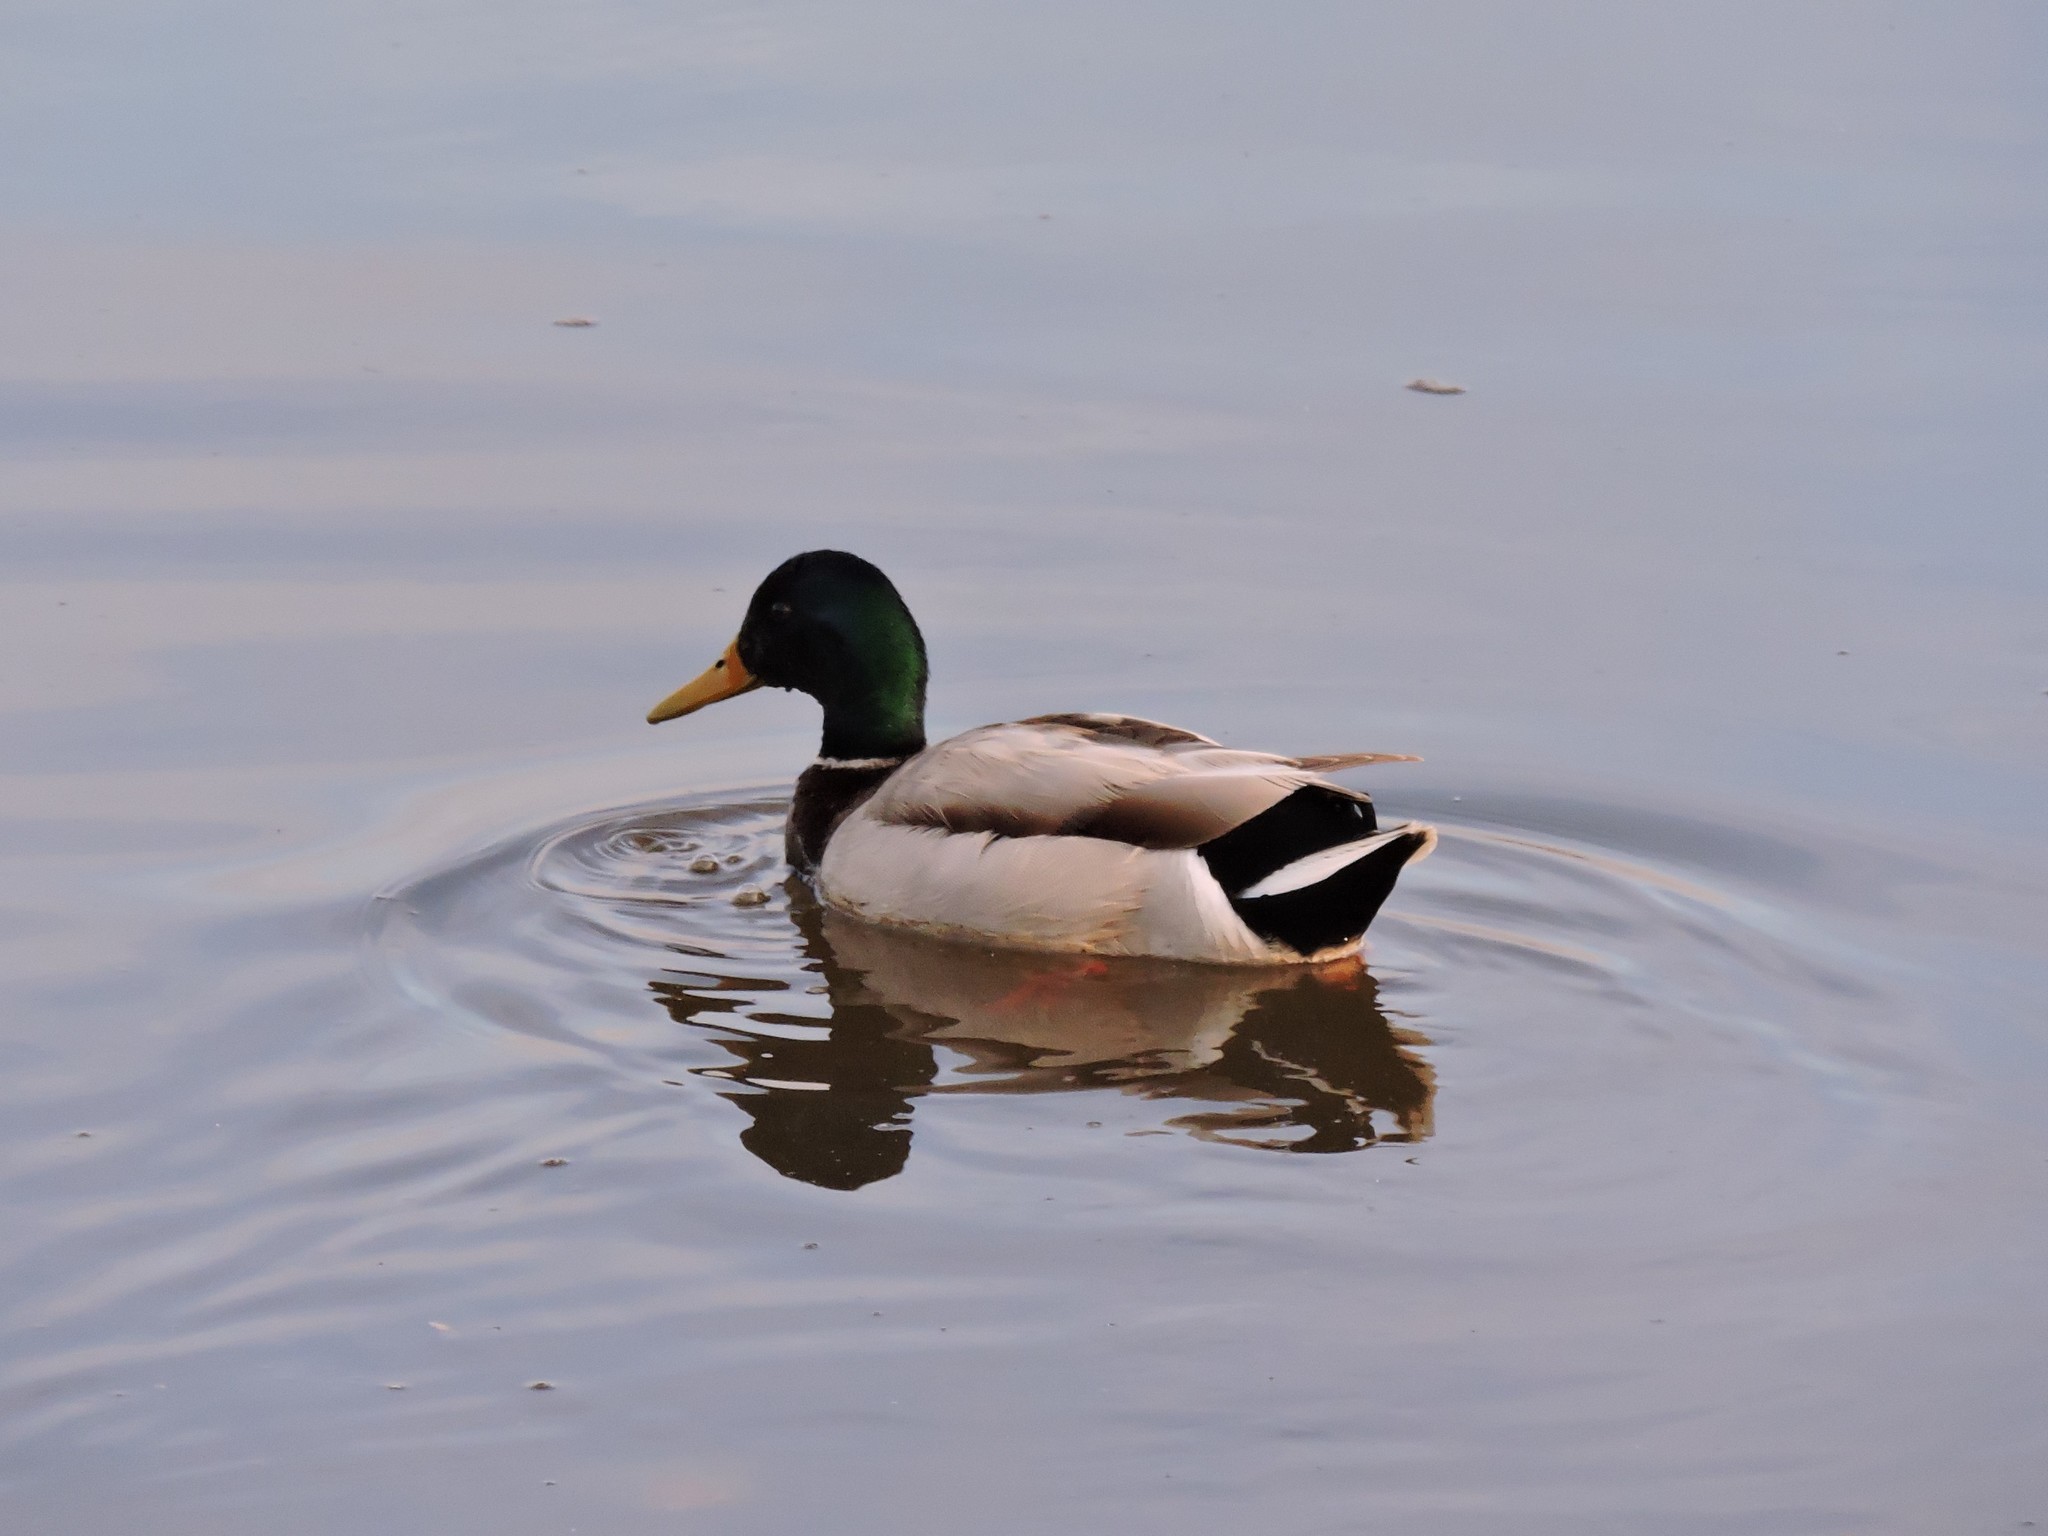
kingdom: Animalia
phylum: Chordata
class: Aves
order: Anseriformes
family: Anatidae
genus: Anas
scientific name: Anas platyrhynchos
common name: Mallard
